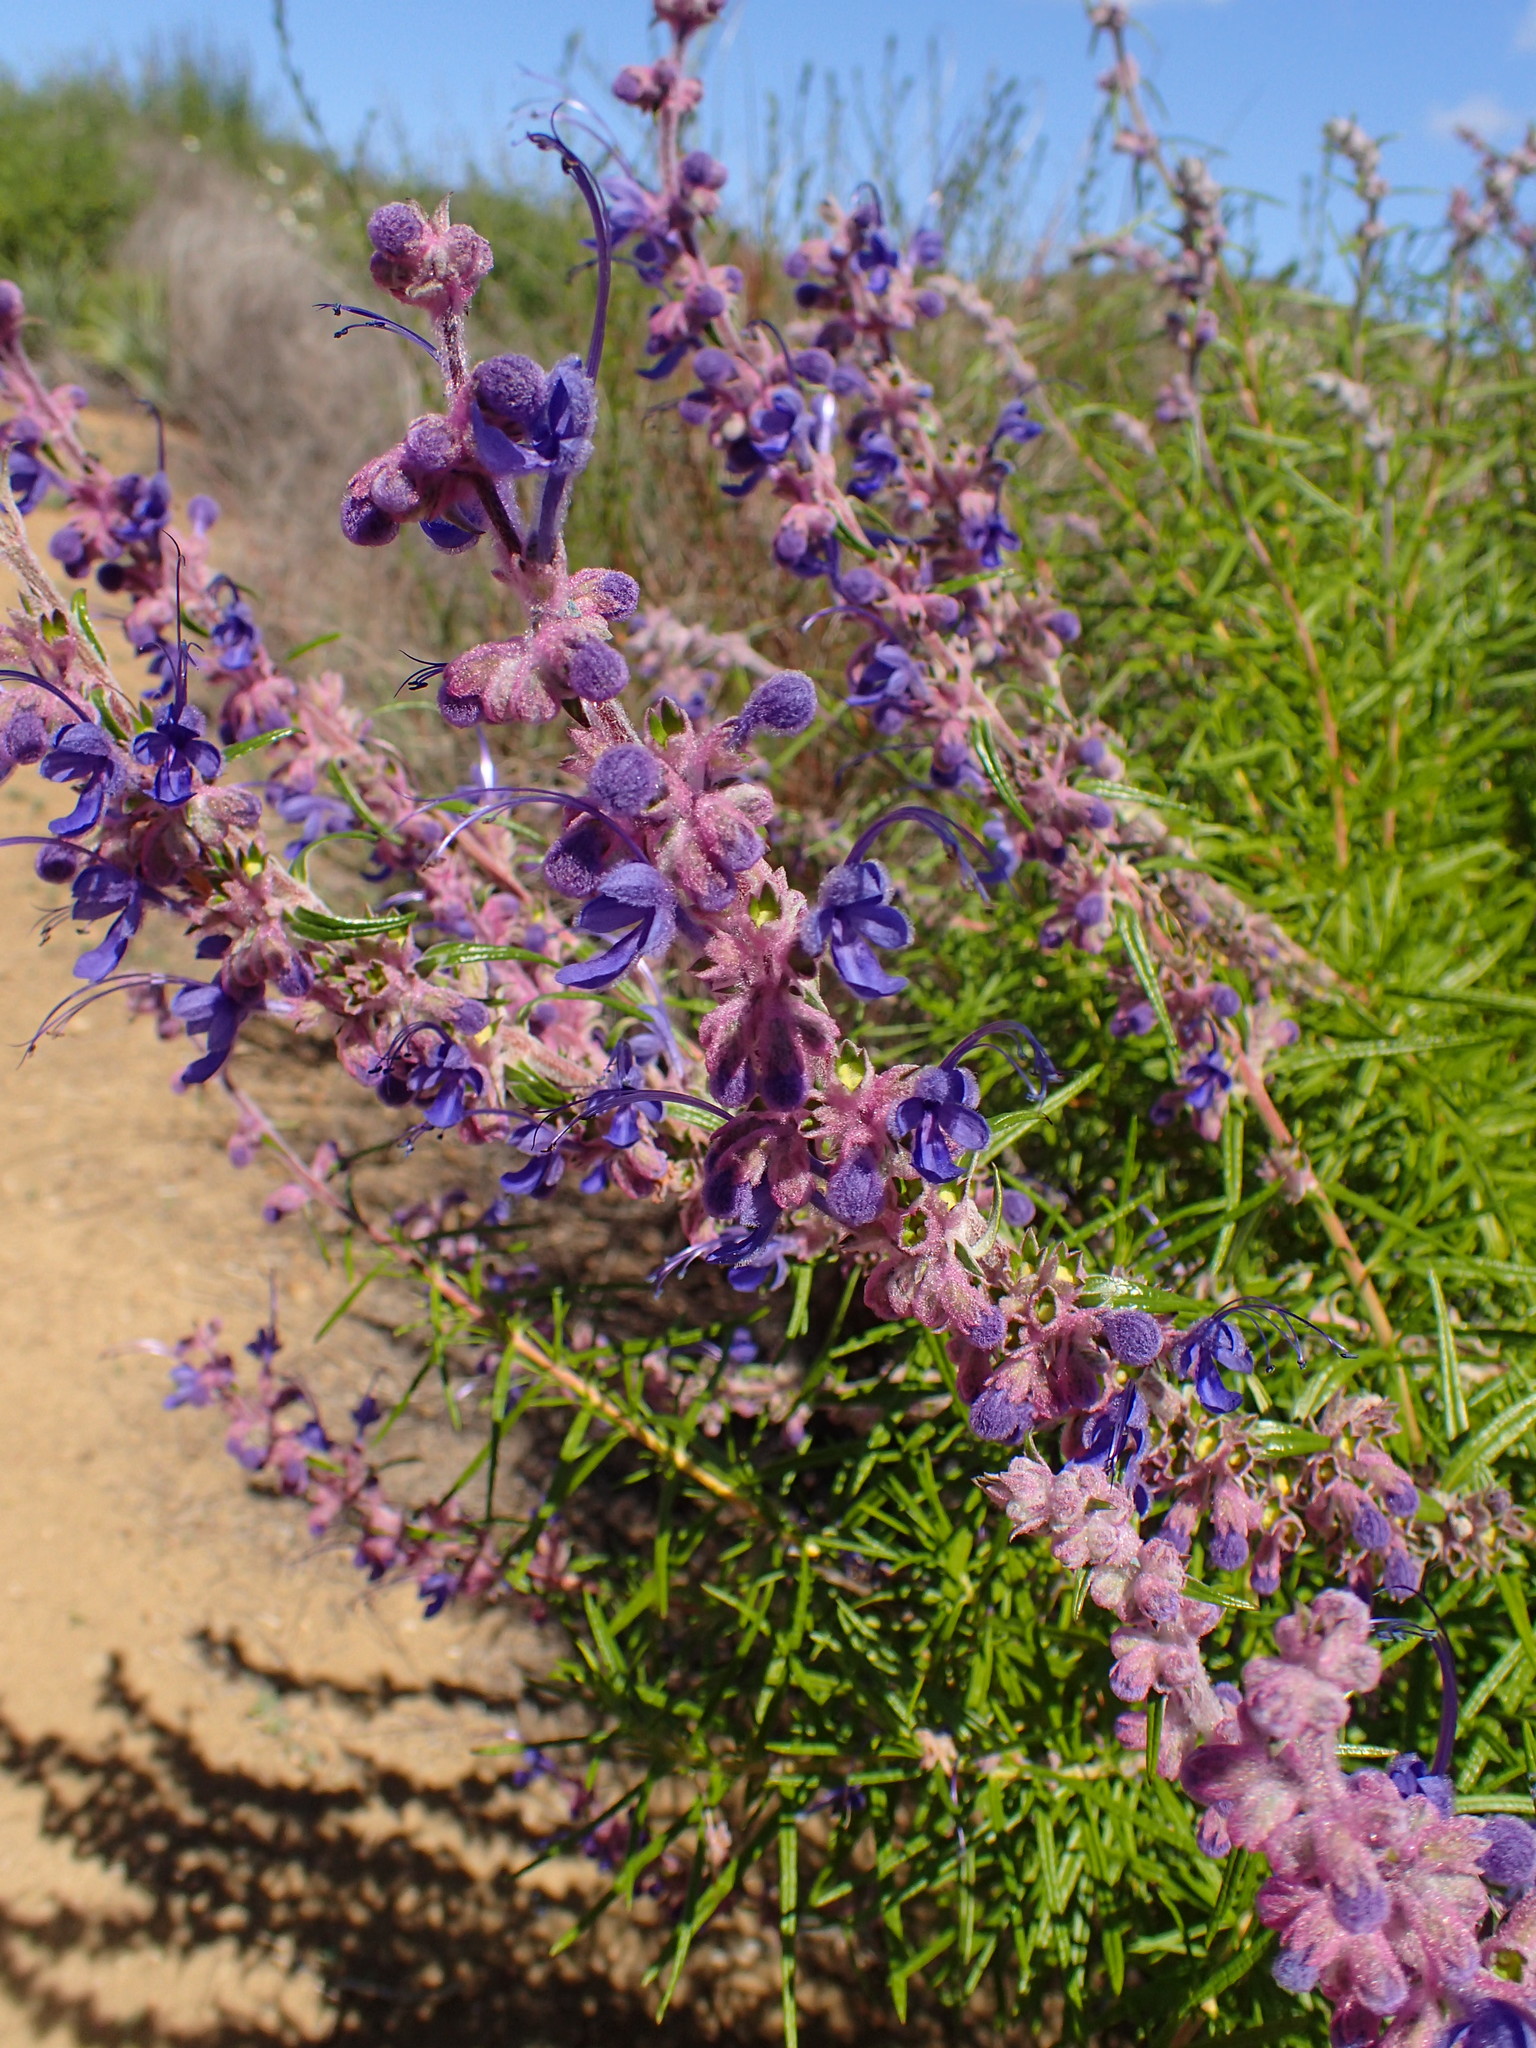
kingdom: Plantae
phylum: Tracheophyta
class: Magnoliopsida
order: Lamiales
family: Lamiaceae
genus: Trichostema
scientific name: Trichostema lanatum
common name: Woolly bluecurls
